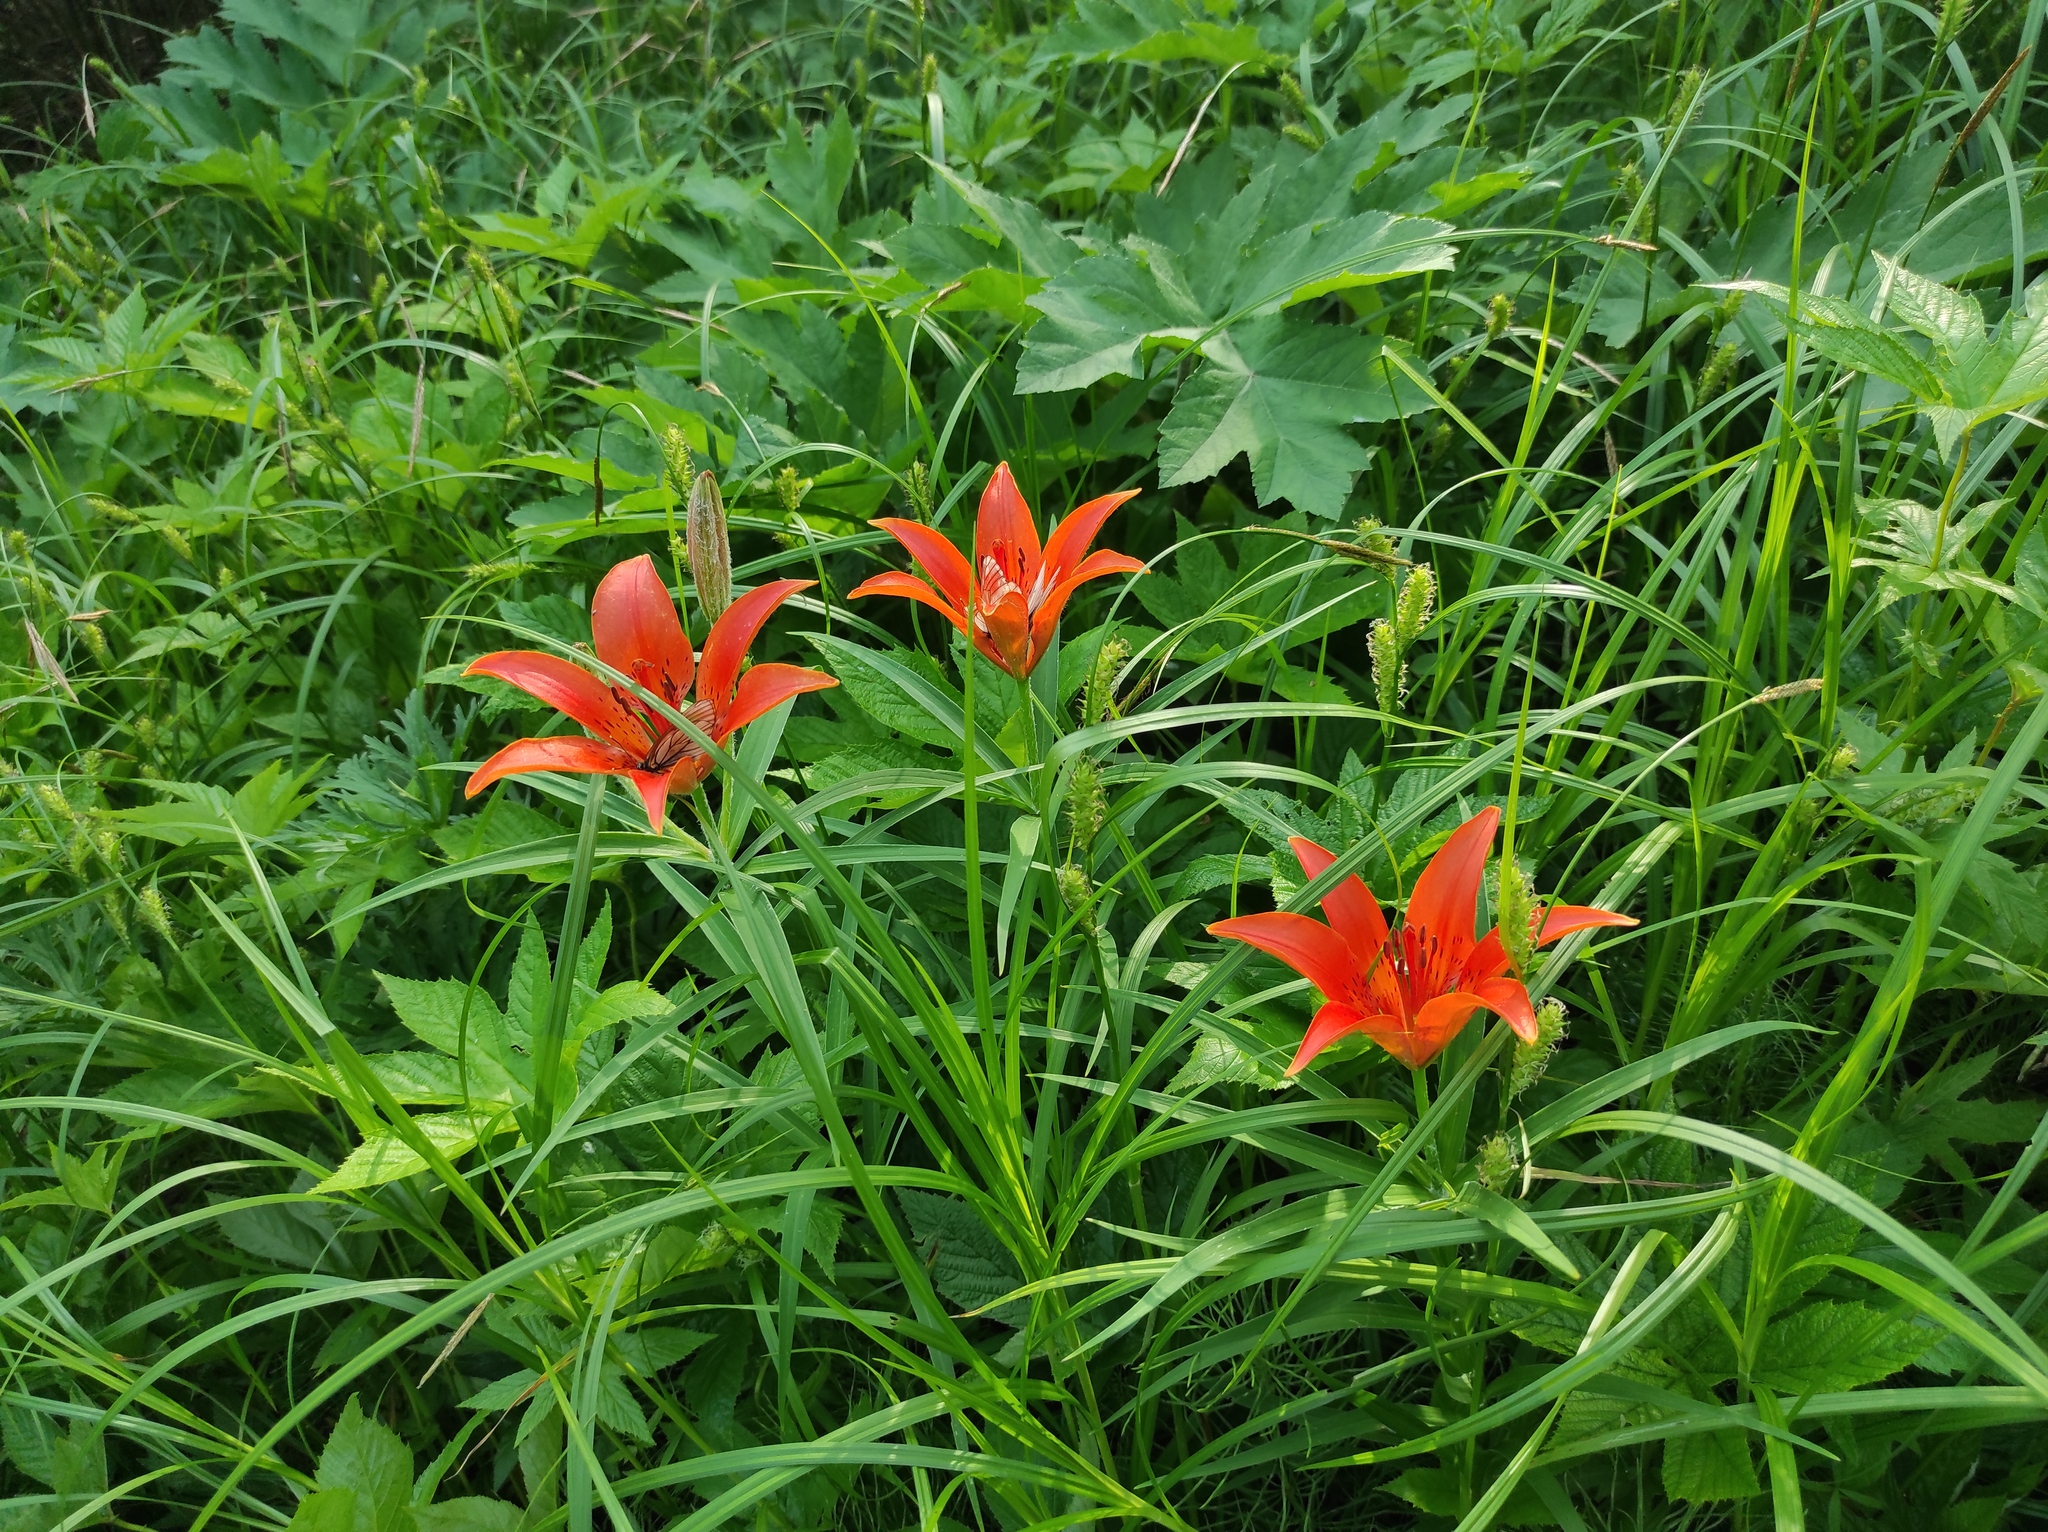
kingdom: Plantae
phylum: Tracheophyta
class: Liliopsida
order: Liliales
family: Liliaceae
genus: Lilium
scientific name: Lilium pensylvanicum
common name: Candlestick lily
